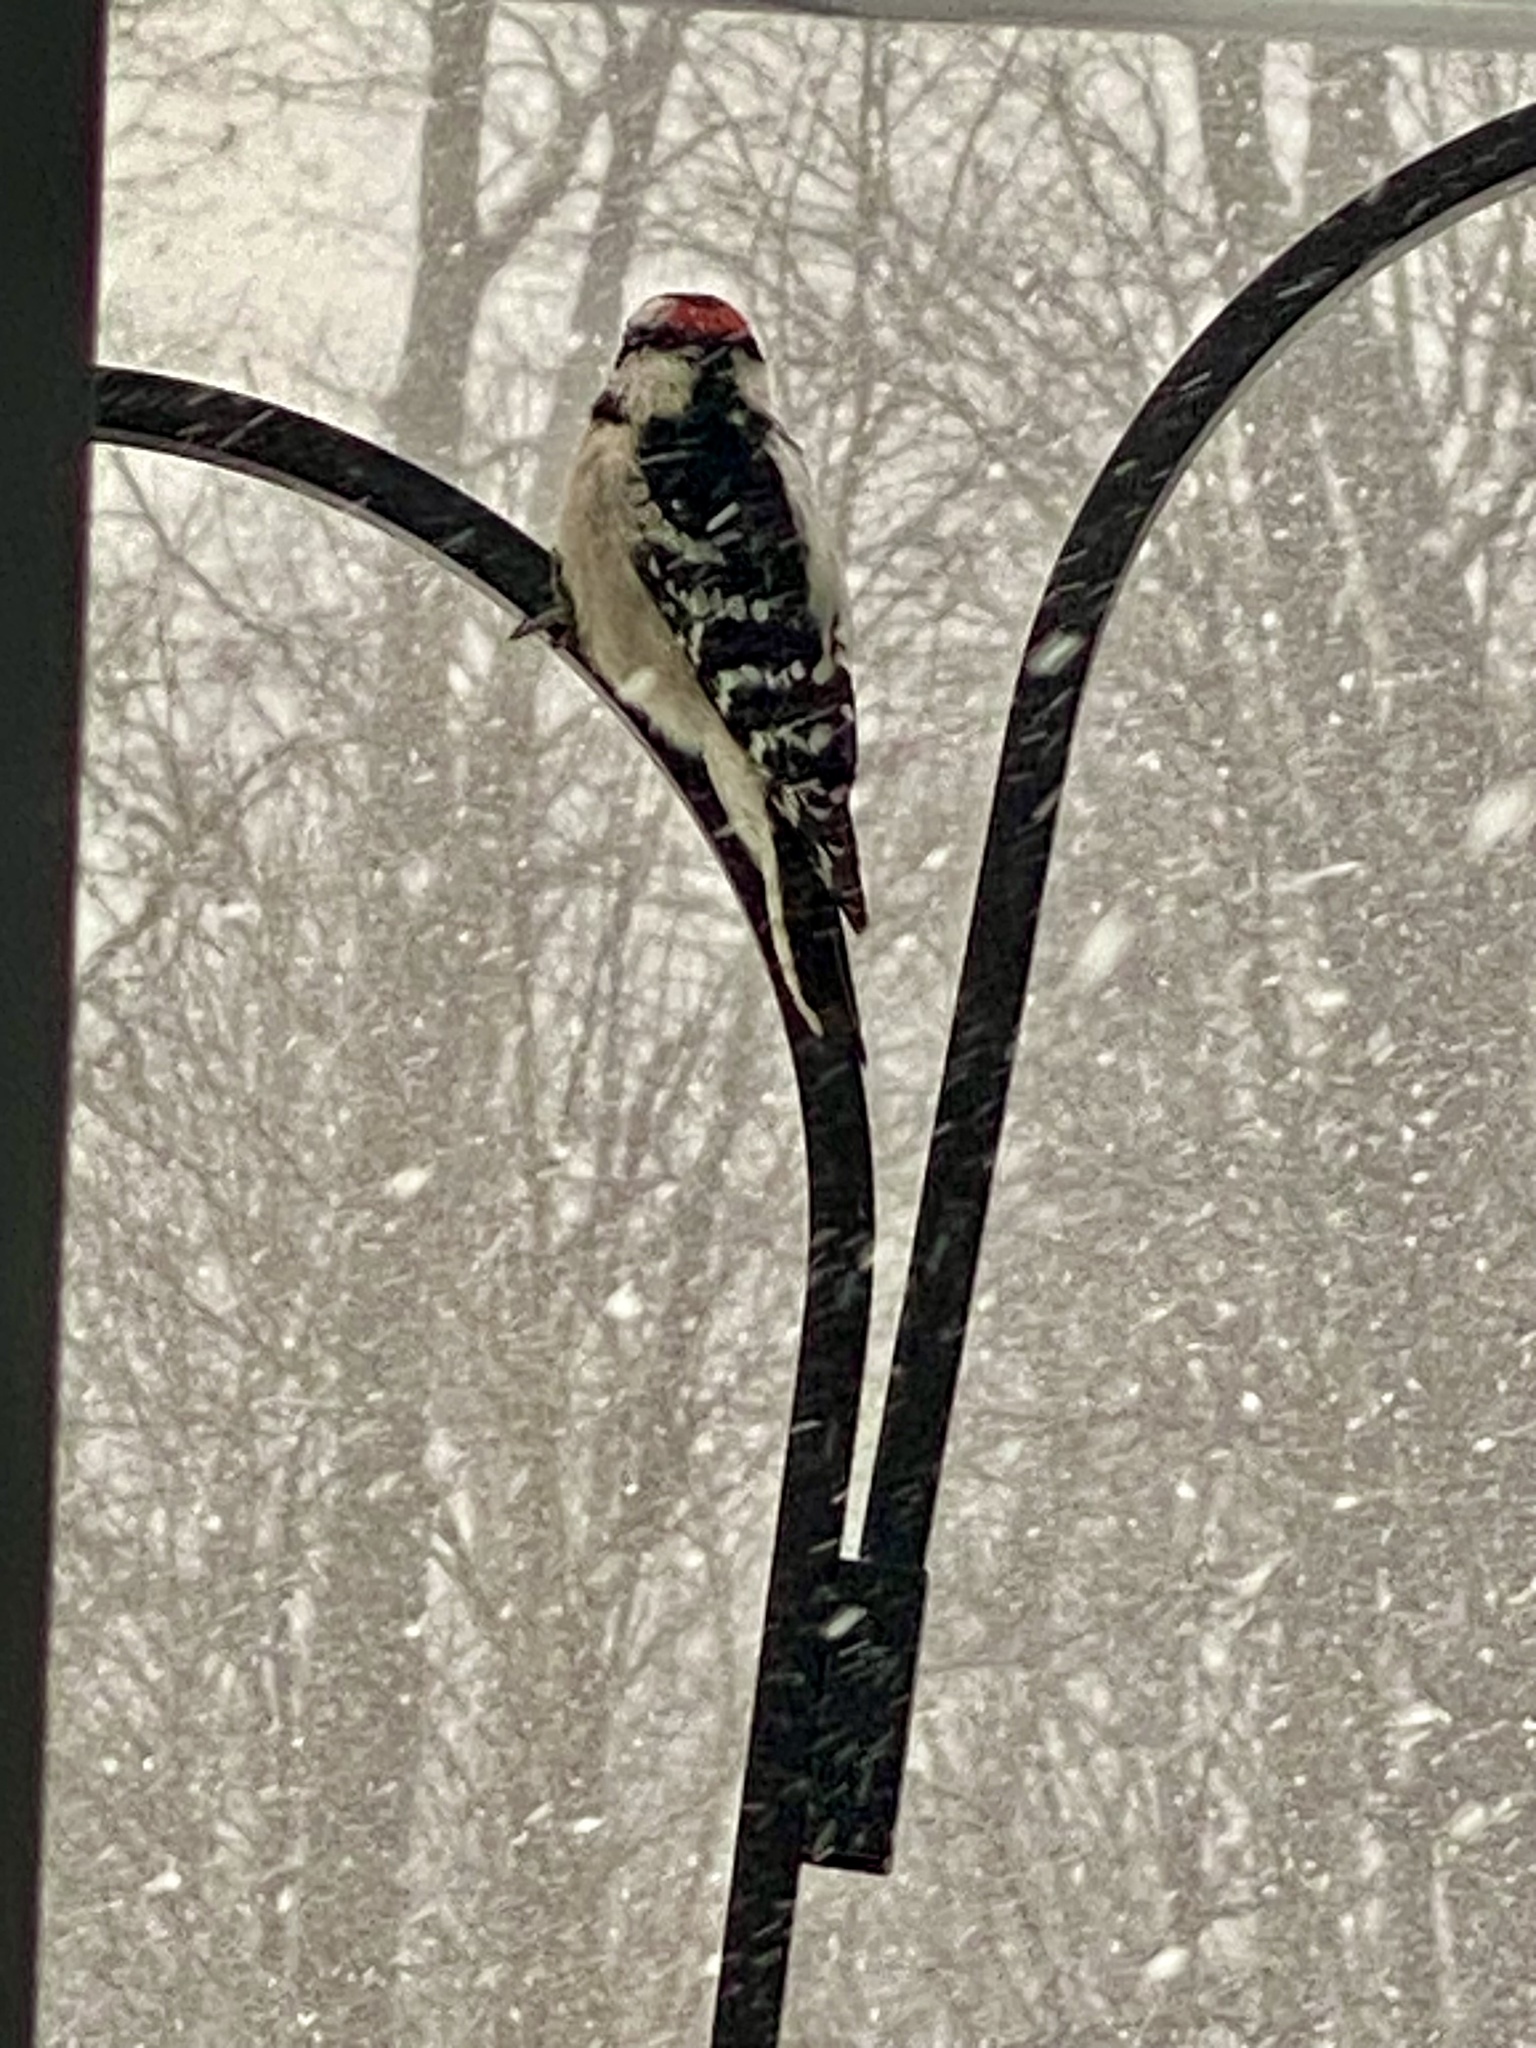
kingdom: Animalia
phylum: Chordata
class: Aves
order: Piciformes
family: Picidae
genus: Dryobates
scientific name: Dryobates pubescens
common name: Downy woodpecker
